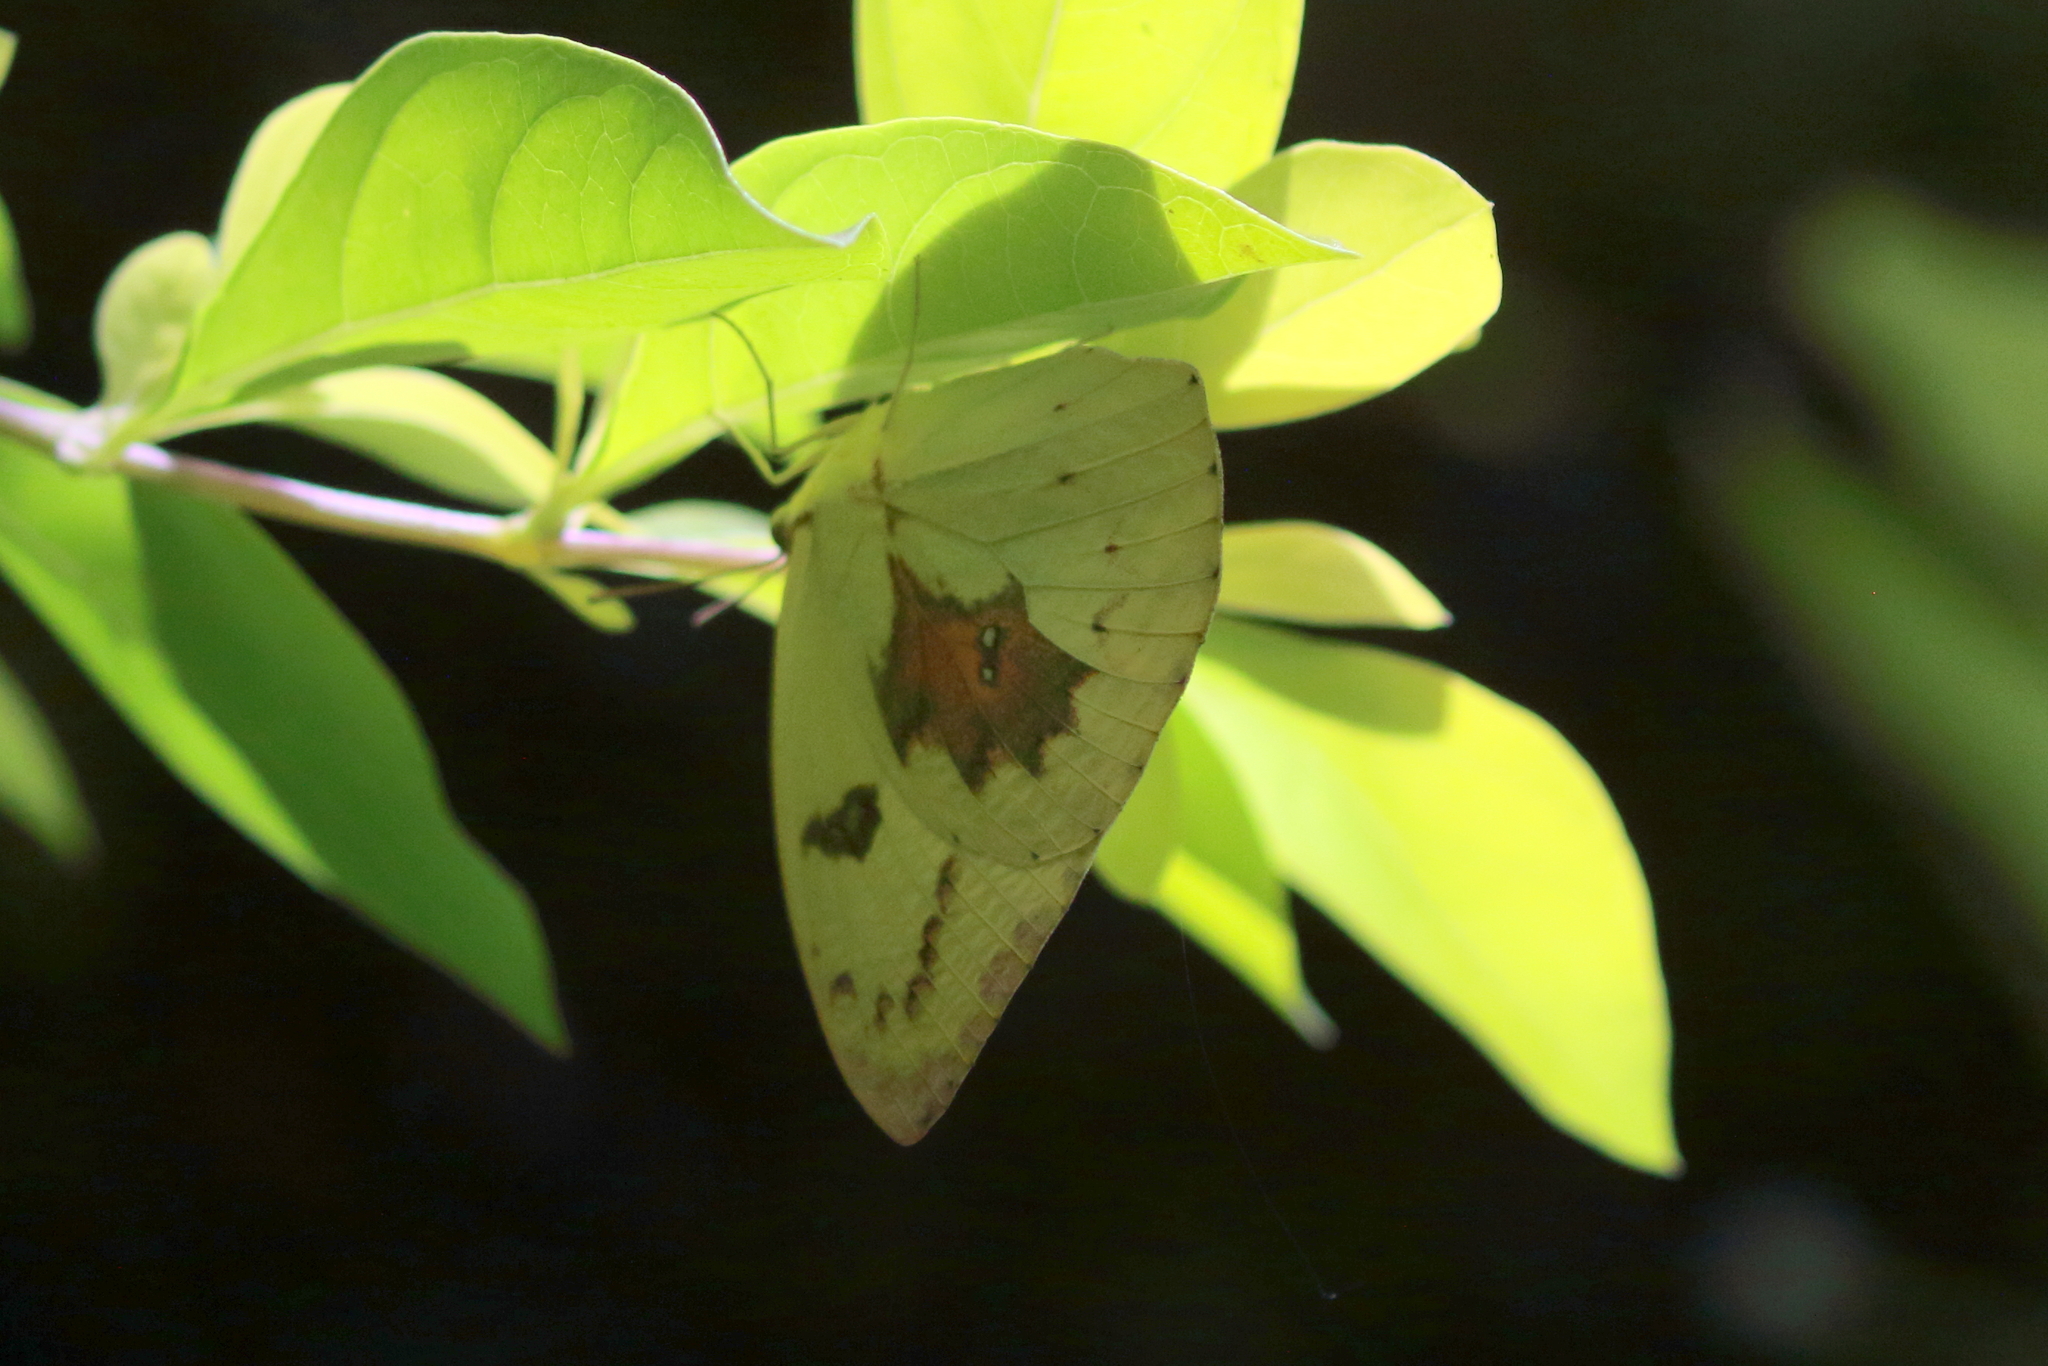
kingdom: Animalia
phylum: Arthropoda
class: Insecta
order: Lepidoptera
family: Pieridae
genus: Catopsilia
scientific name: Catopsilia pomona
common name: Common emigrant
